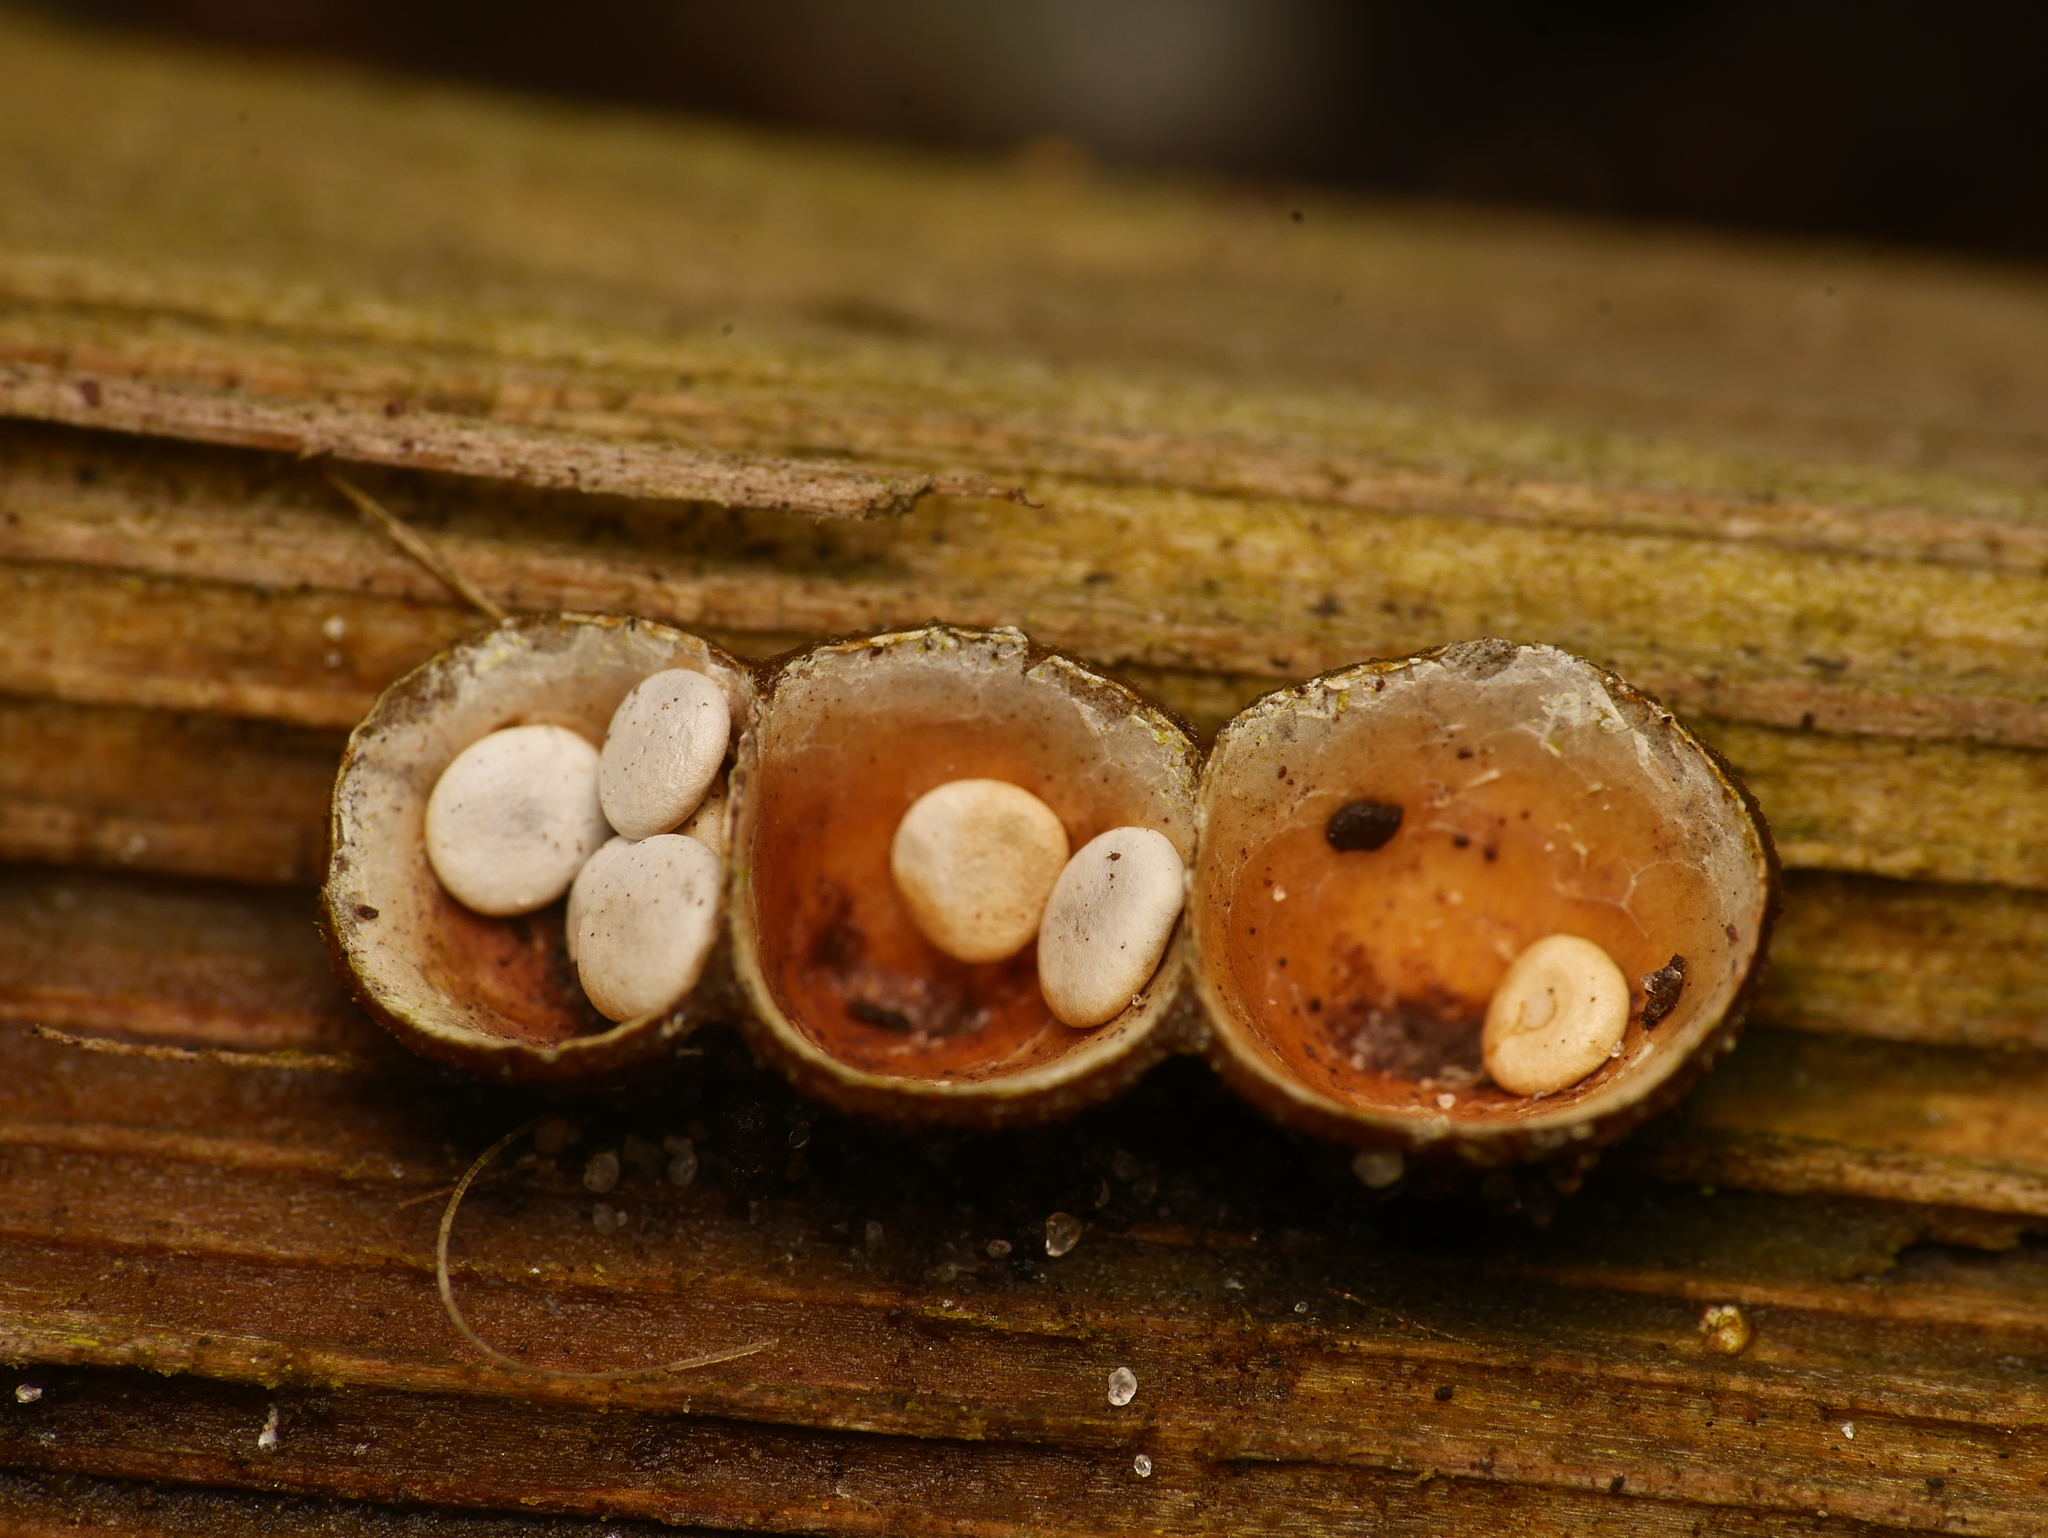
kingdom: Fungi
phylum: Basidiomycota
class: Agaricomycetes
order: Agaricales
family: Nidulariaceae
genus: Crucibulum
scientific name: Crucibulum laeve
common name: Common bird's nest
